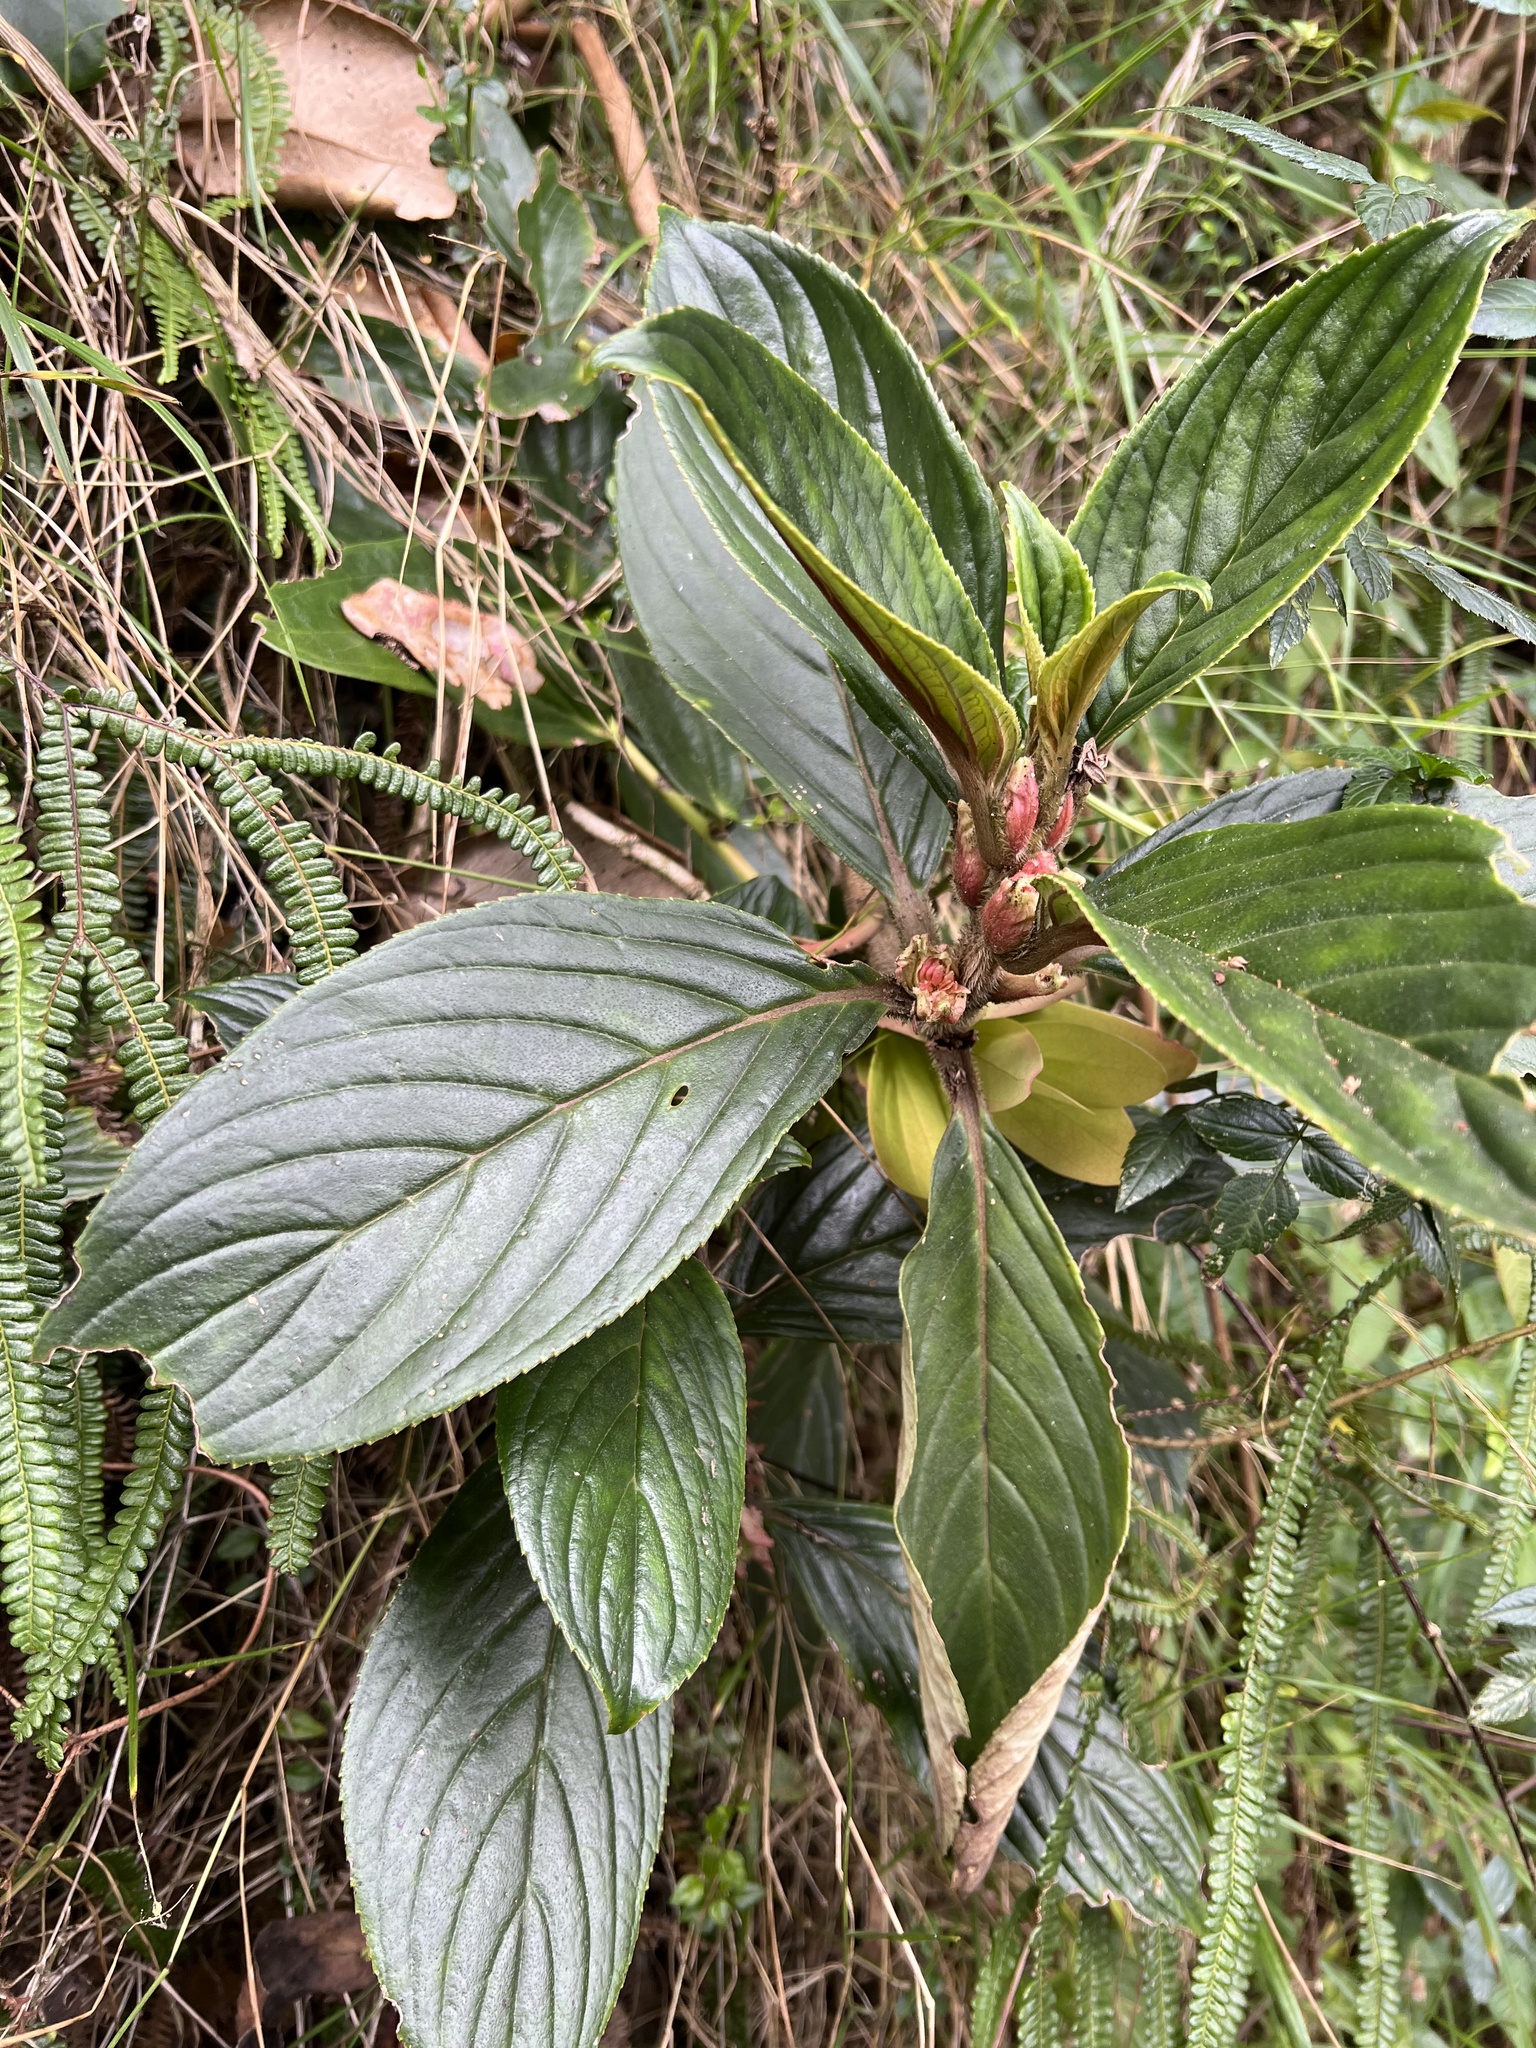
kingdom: Plantae
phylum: Tracheophyta
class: Magnoliopsida
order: Lamiales
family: Gesneriaceae
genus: Glossoloma
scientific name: Glossoloma ichthyoderma
